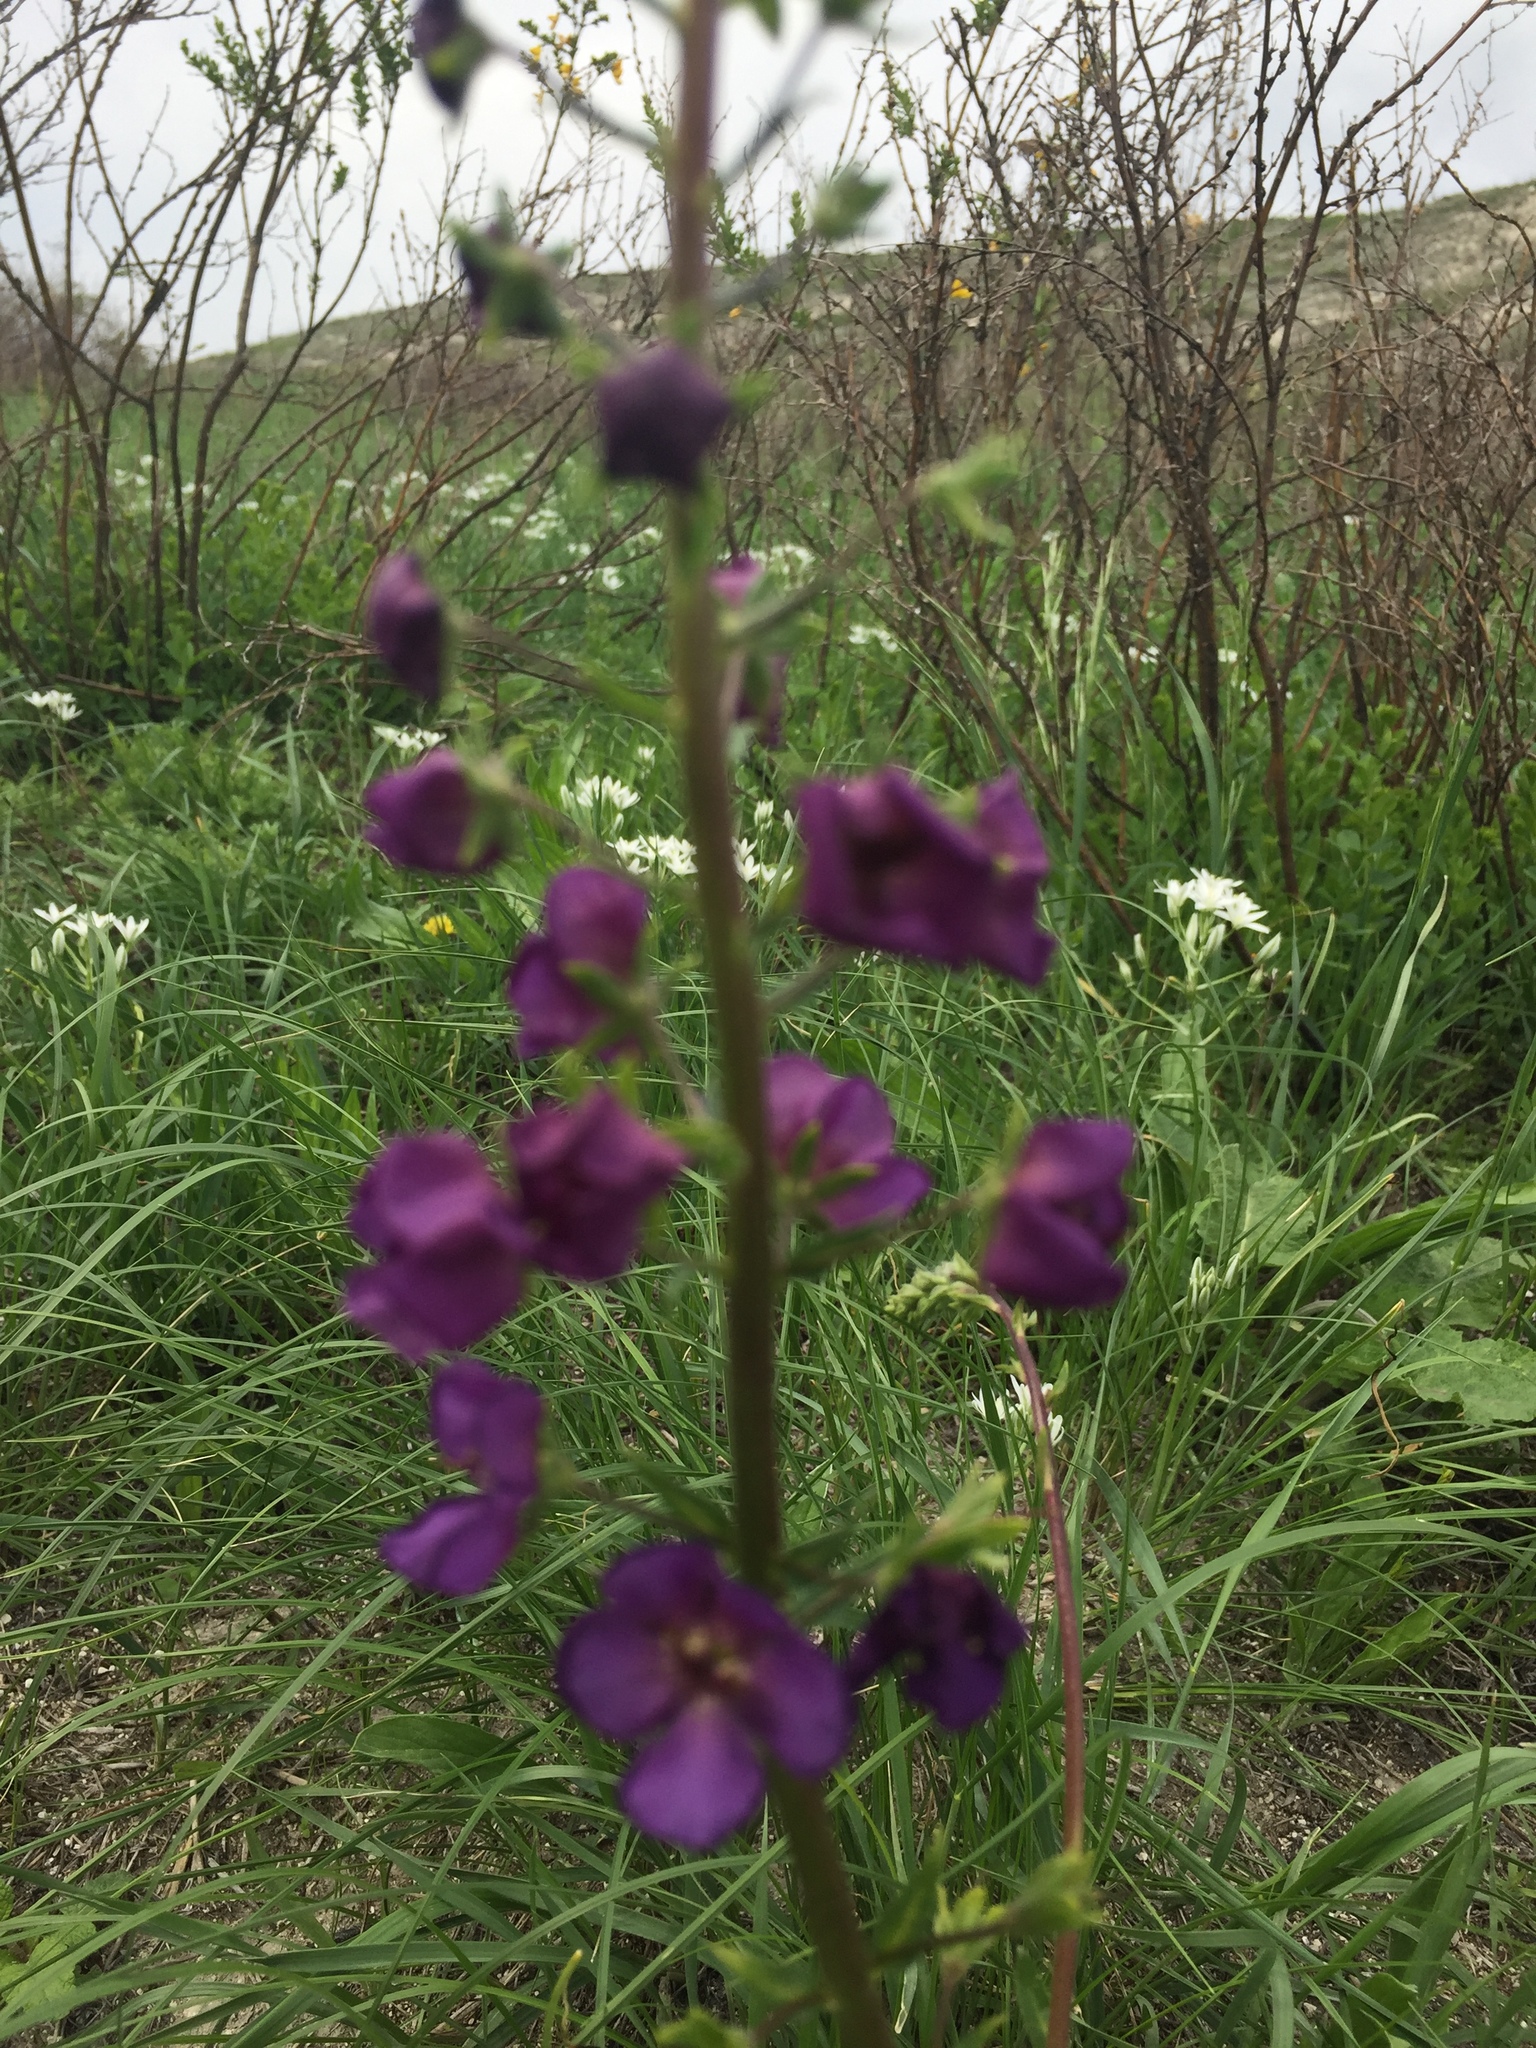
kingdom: Plantae
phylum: Tracheophyta
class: Magnoliopsida
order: Lamiales
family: Scrophulariaceae
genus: Verbascum
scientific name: Verbascum phoeniceum
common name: Purple mullein
